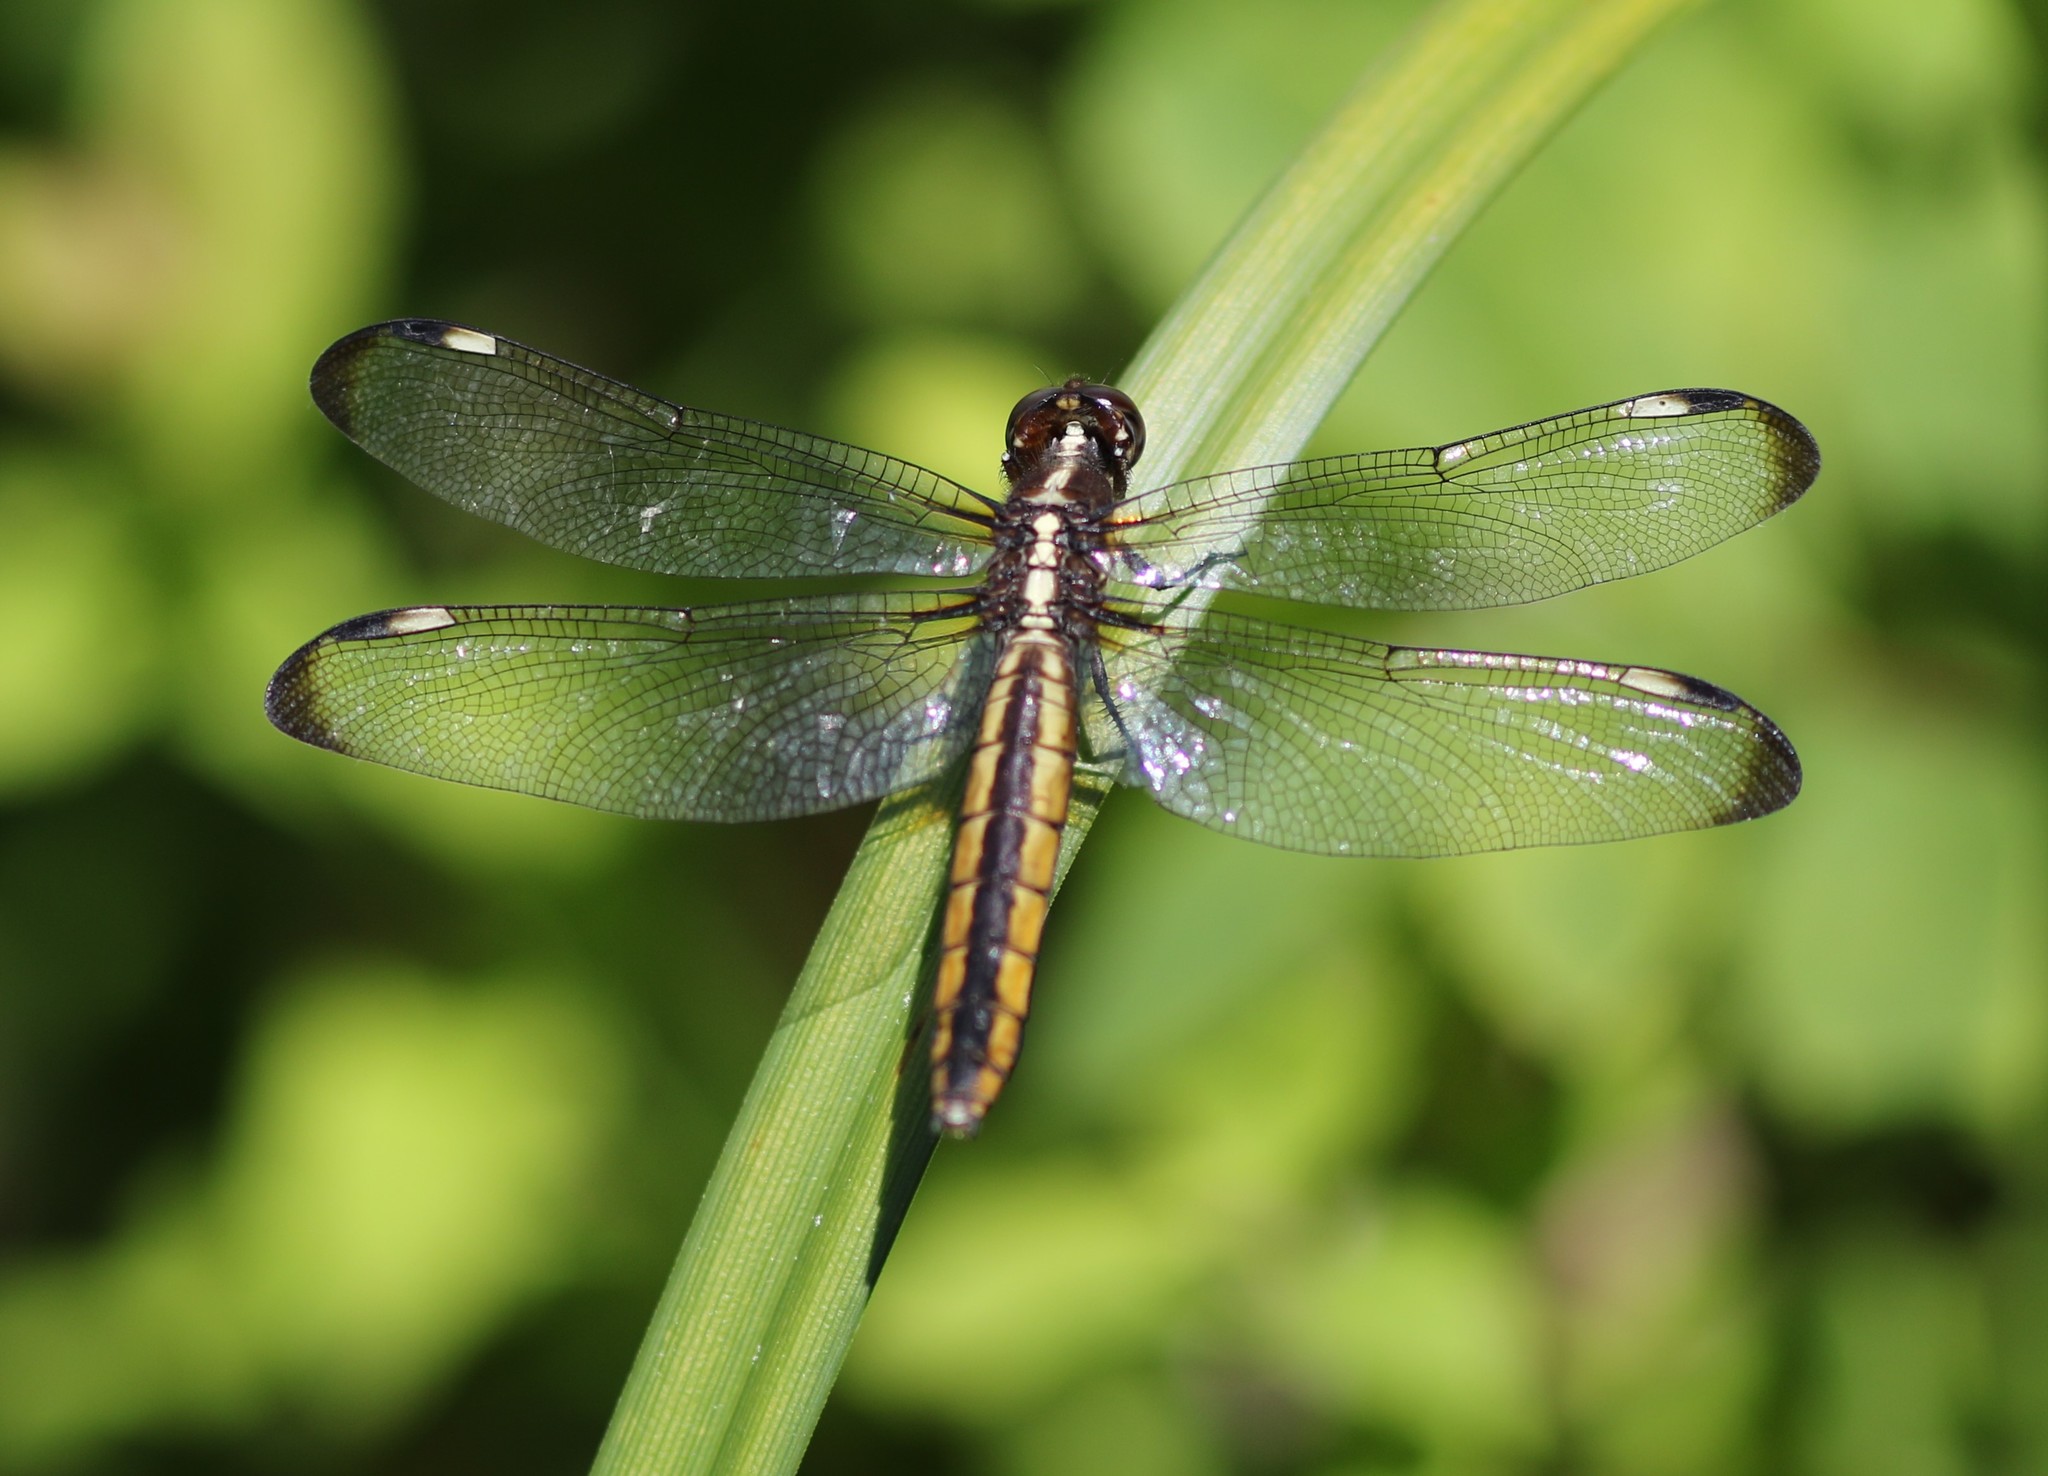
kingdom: Animalia
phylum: Arthropoda
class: Insecta
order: Odonata
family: Libellulidae
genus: Libellula
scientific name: Libellula cyanea
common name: Spangled skimmer
